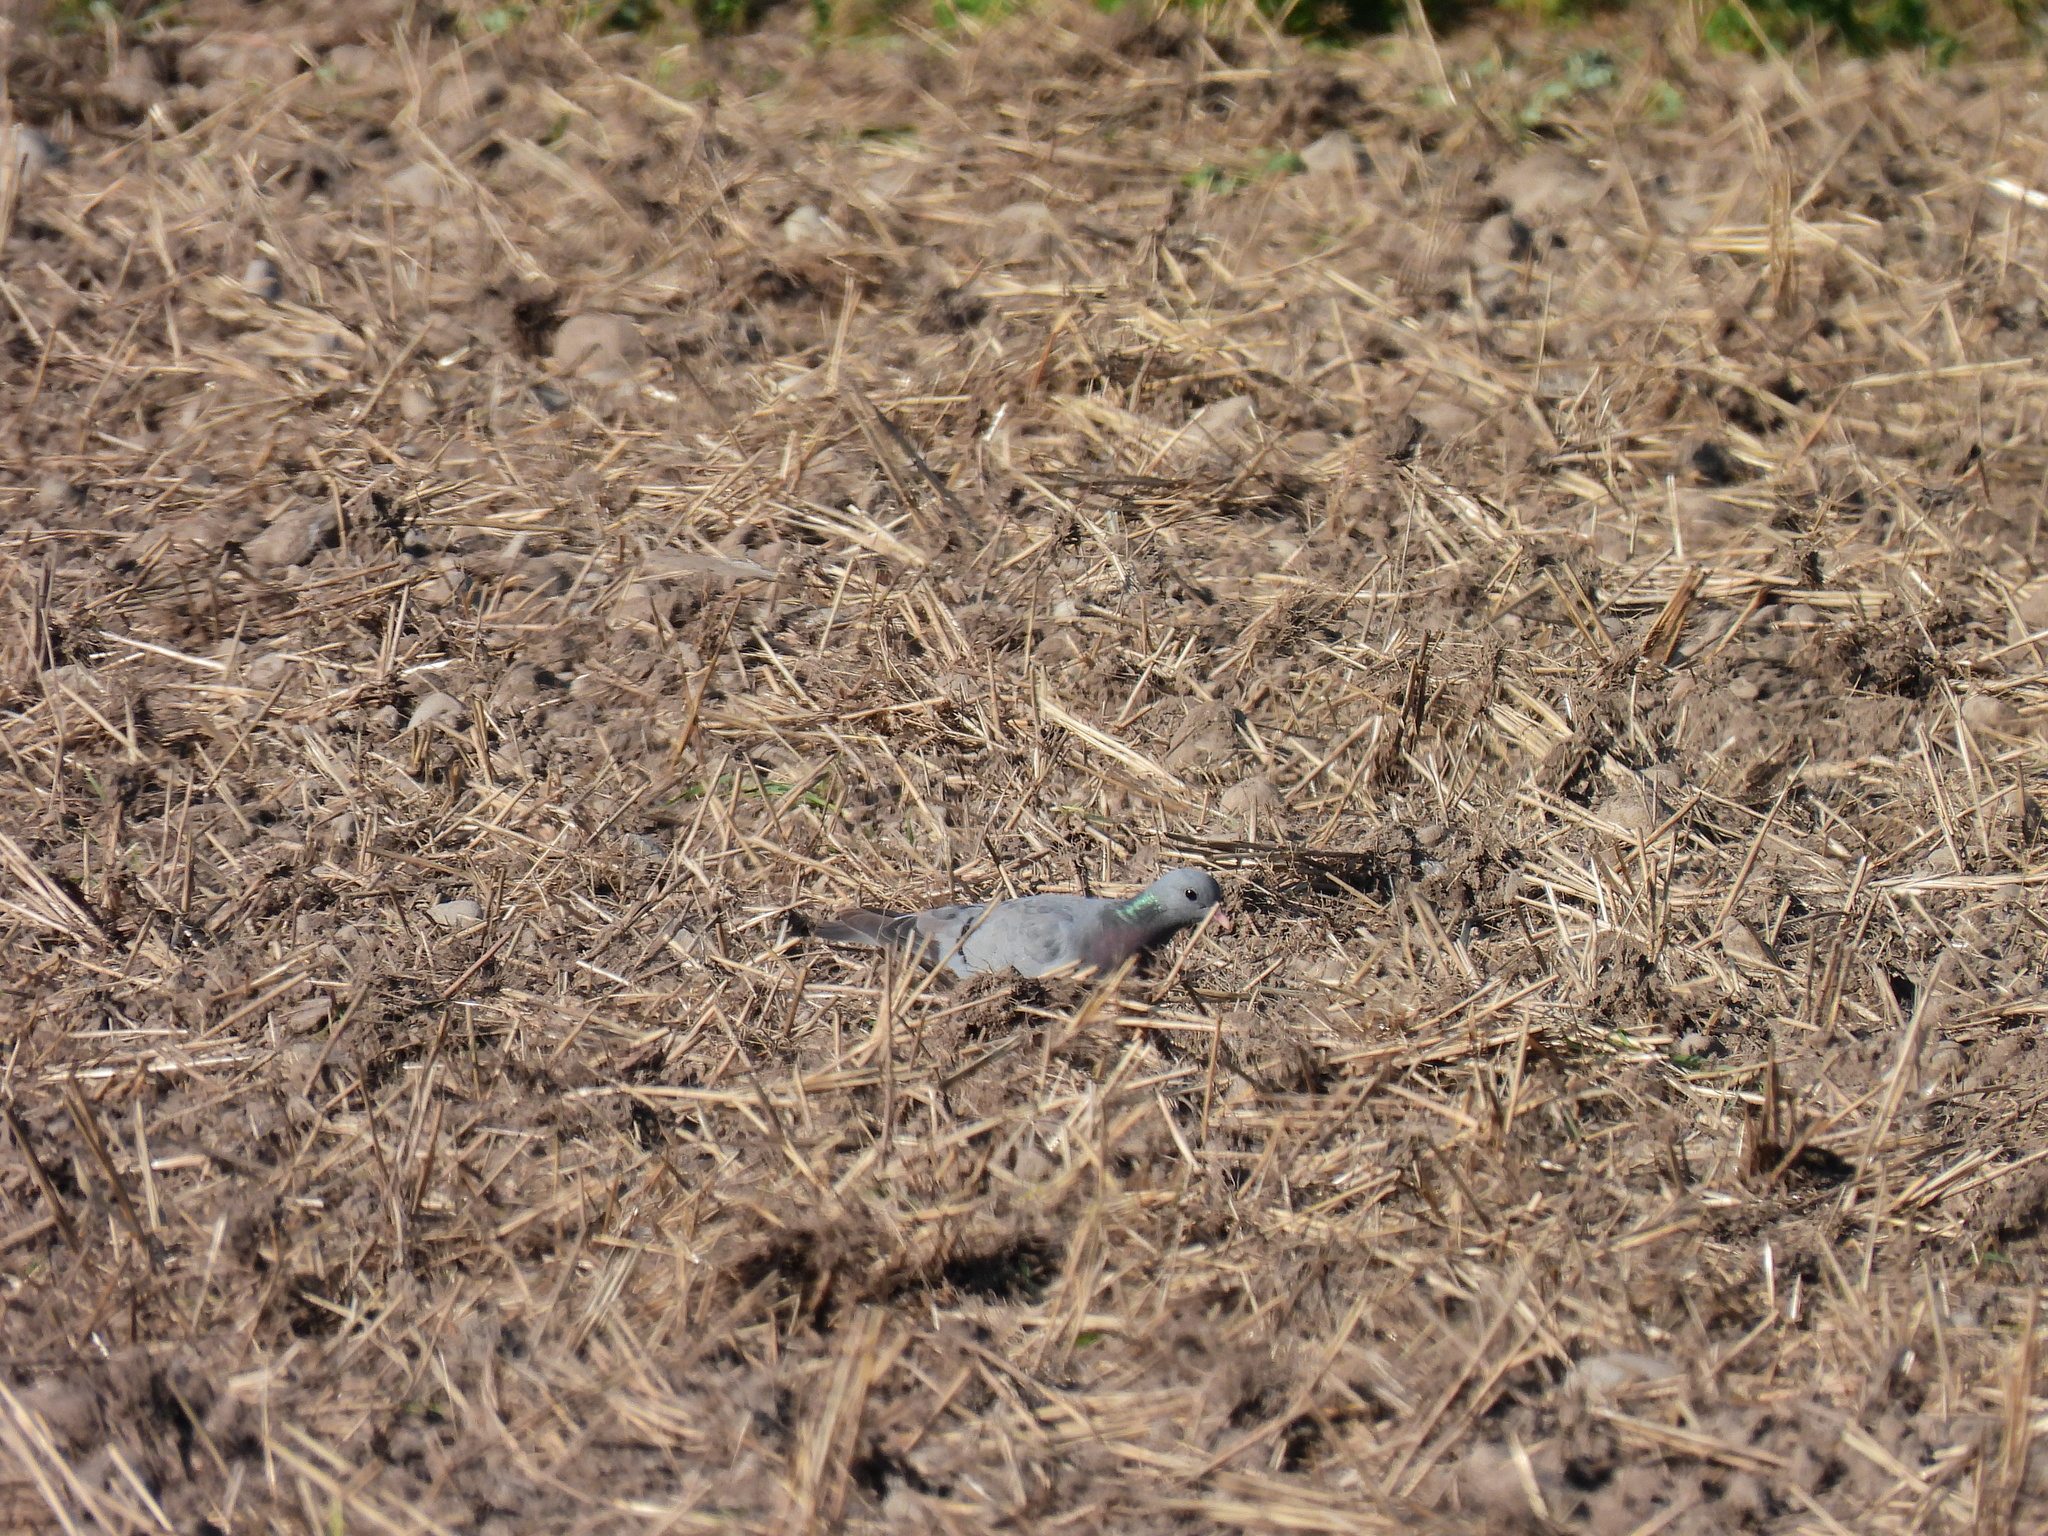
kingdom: Animalia
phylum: Chordata
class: Aves
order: Columbiformes
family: Columbidae
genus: Columba
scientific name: Columba oenas
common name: Stock dove
